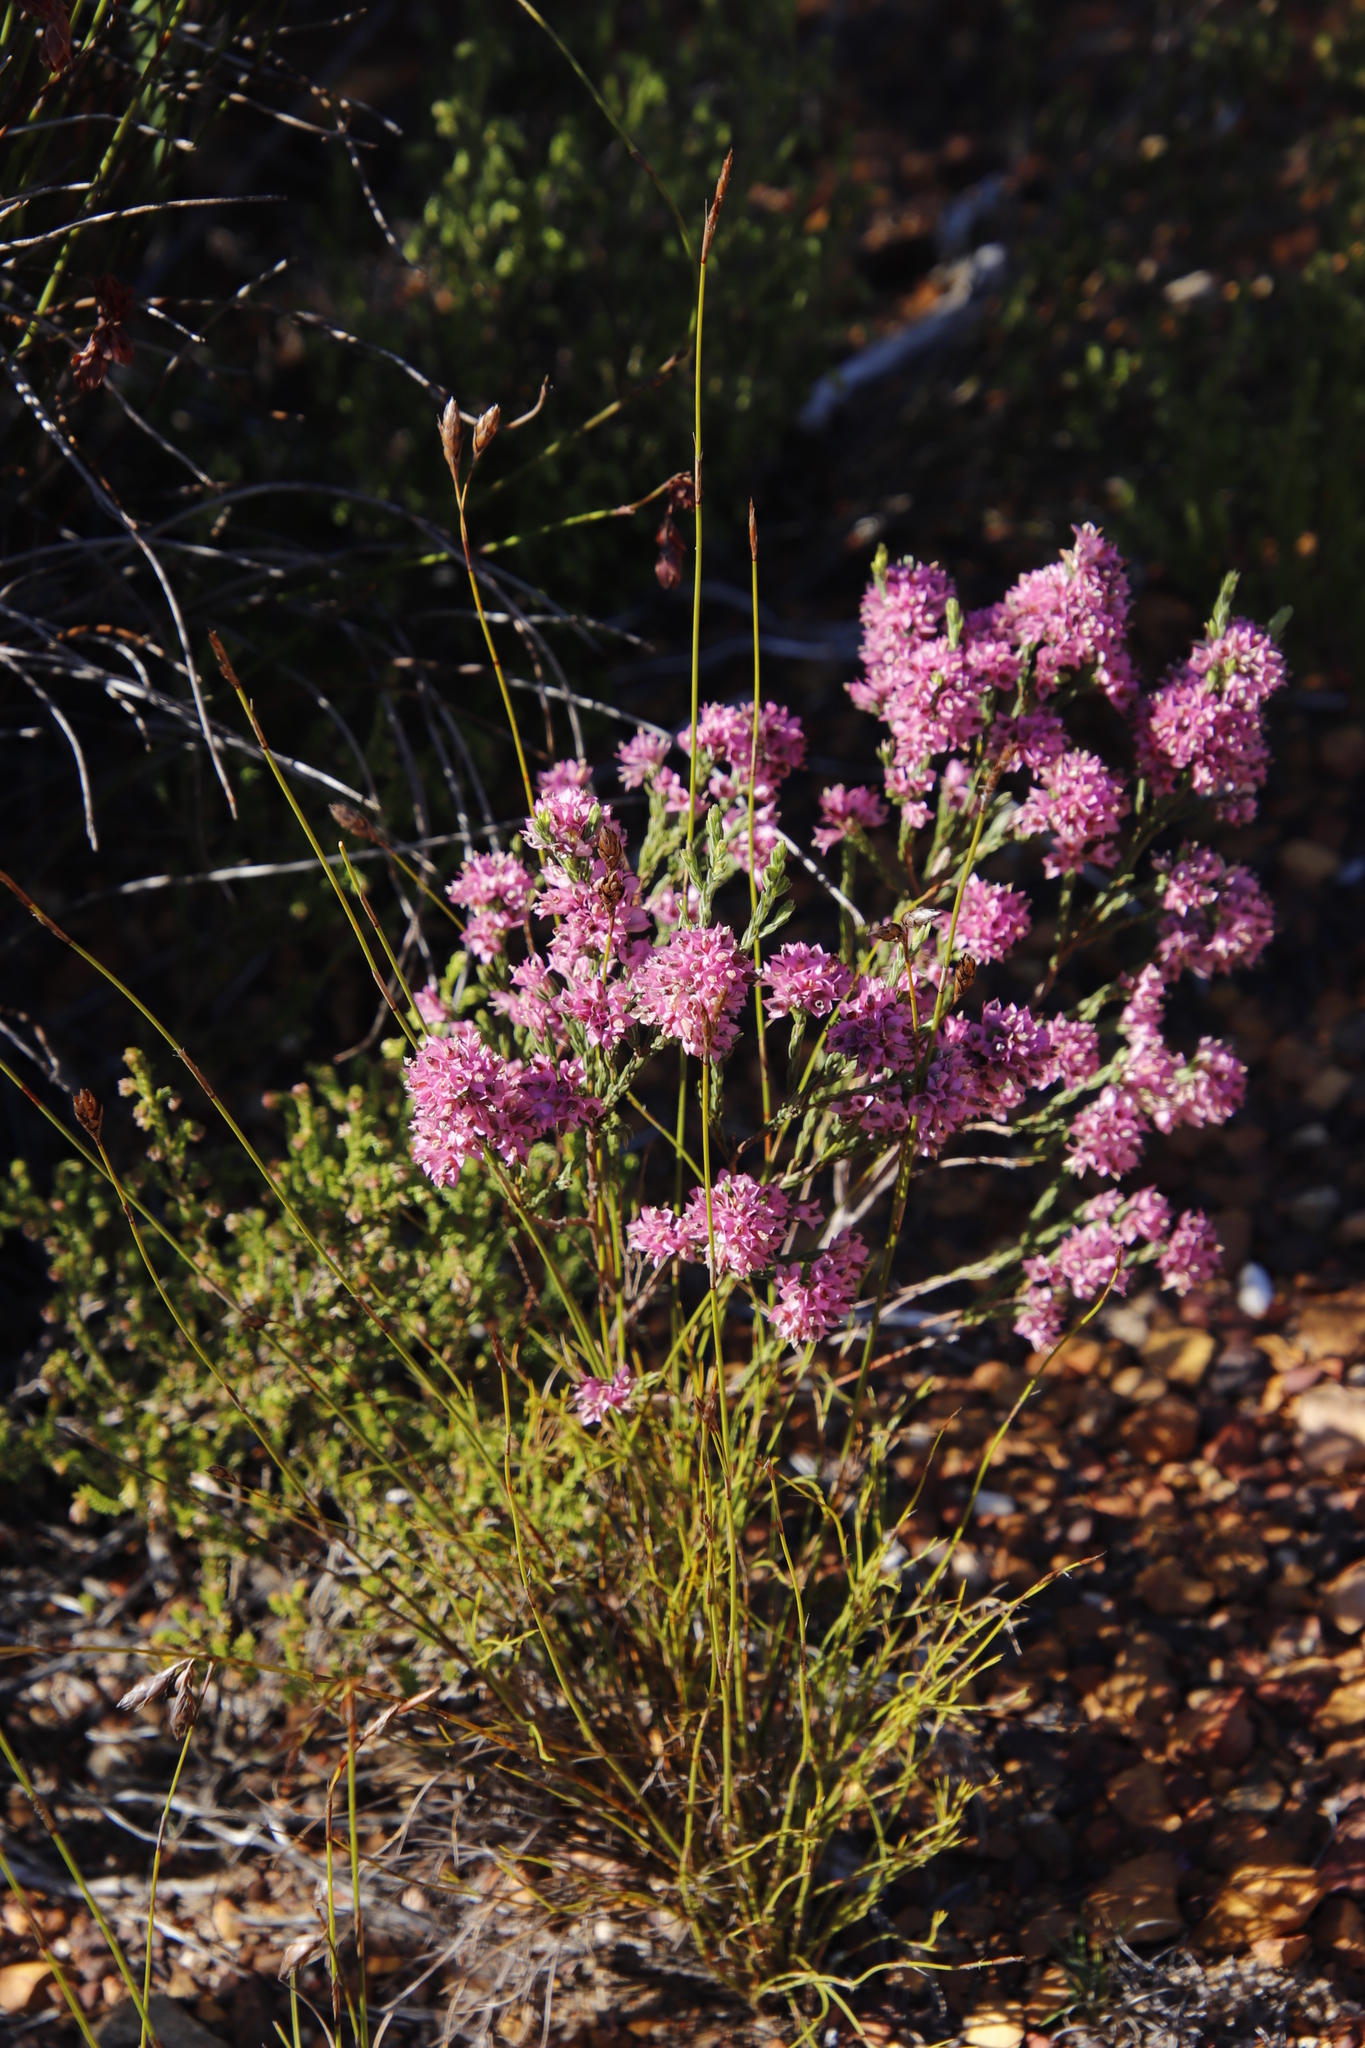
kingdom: Plantae
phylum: Tracheophyta
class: Magnoliopsida
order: Ericales
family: Ericaceae
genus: Erica
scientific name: Erica corifolia
